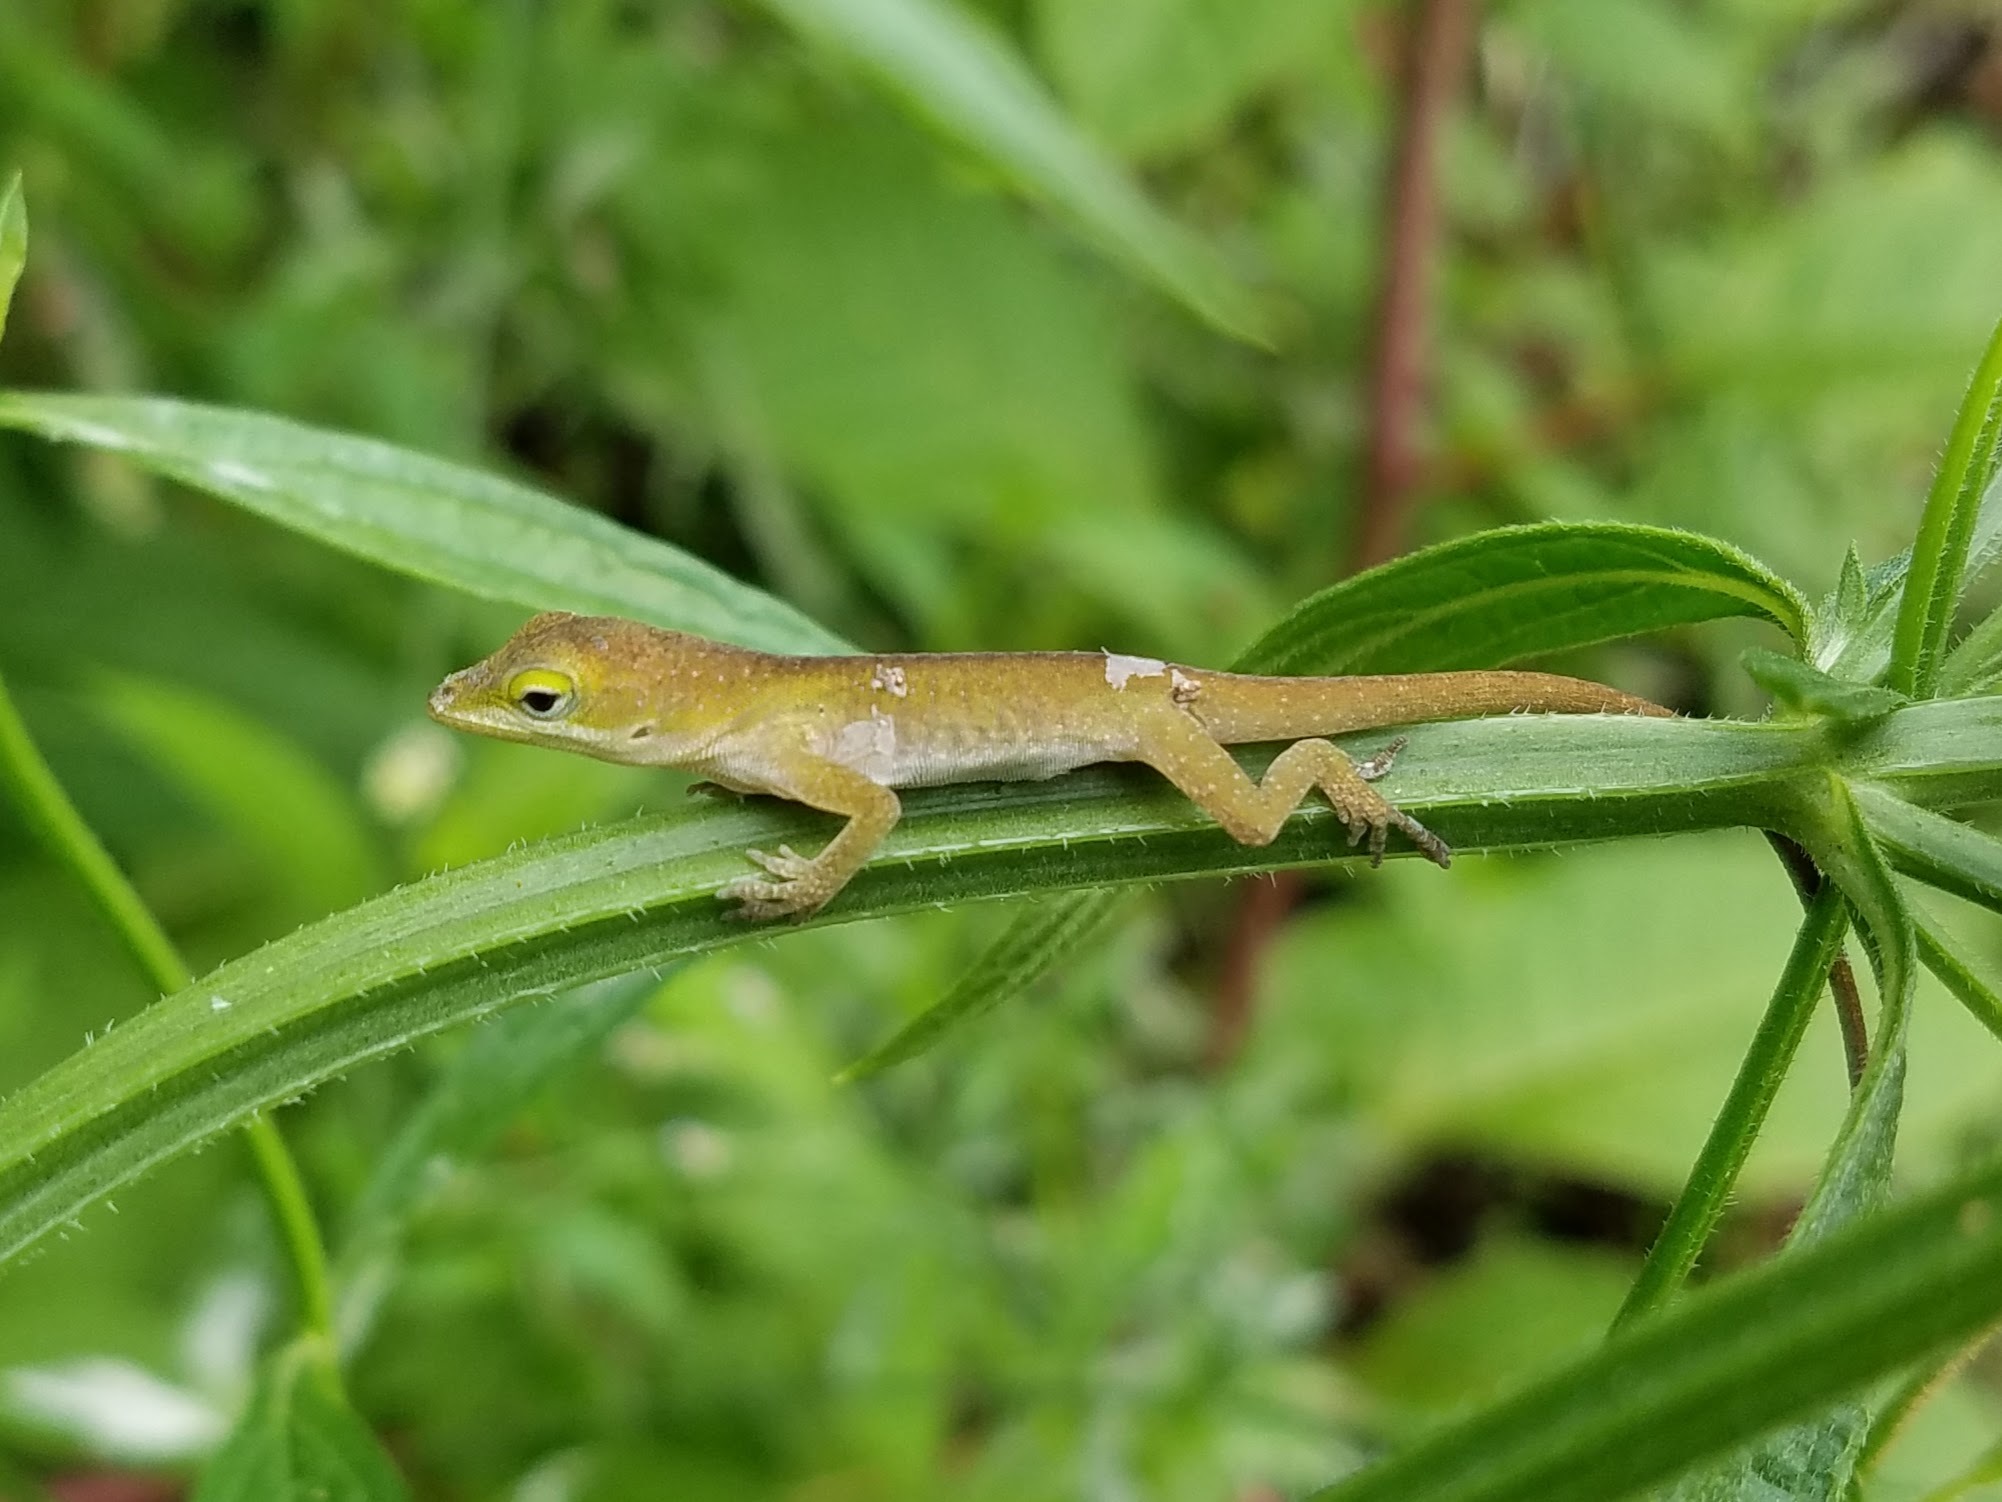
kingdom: Animalia
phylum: Chordata
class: Squamata
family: Dactyloidae
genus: Anolis
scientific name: Anolis carolinensis
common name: Green anole
